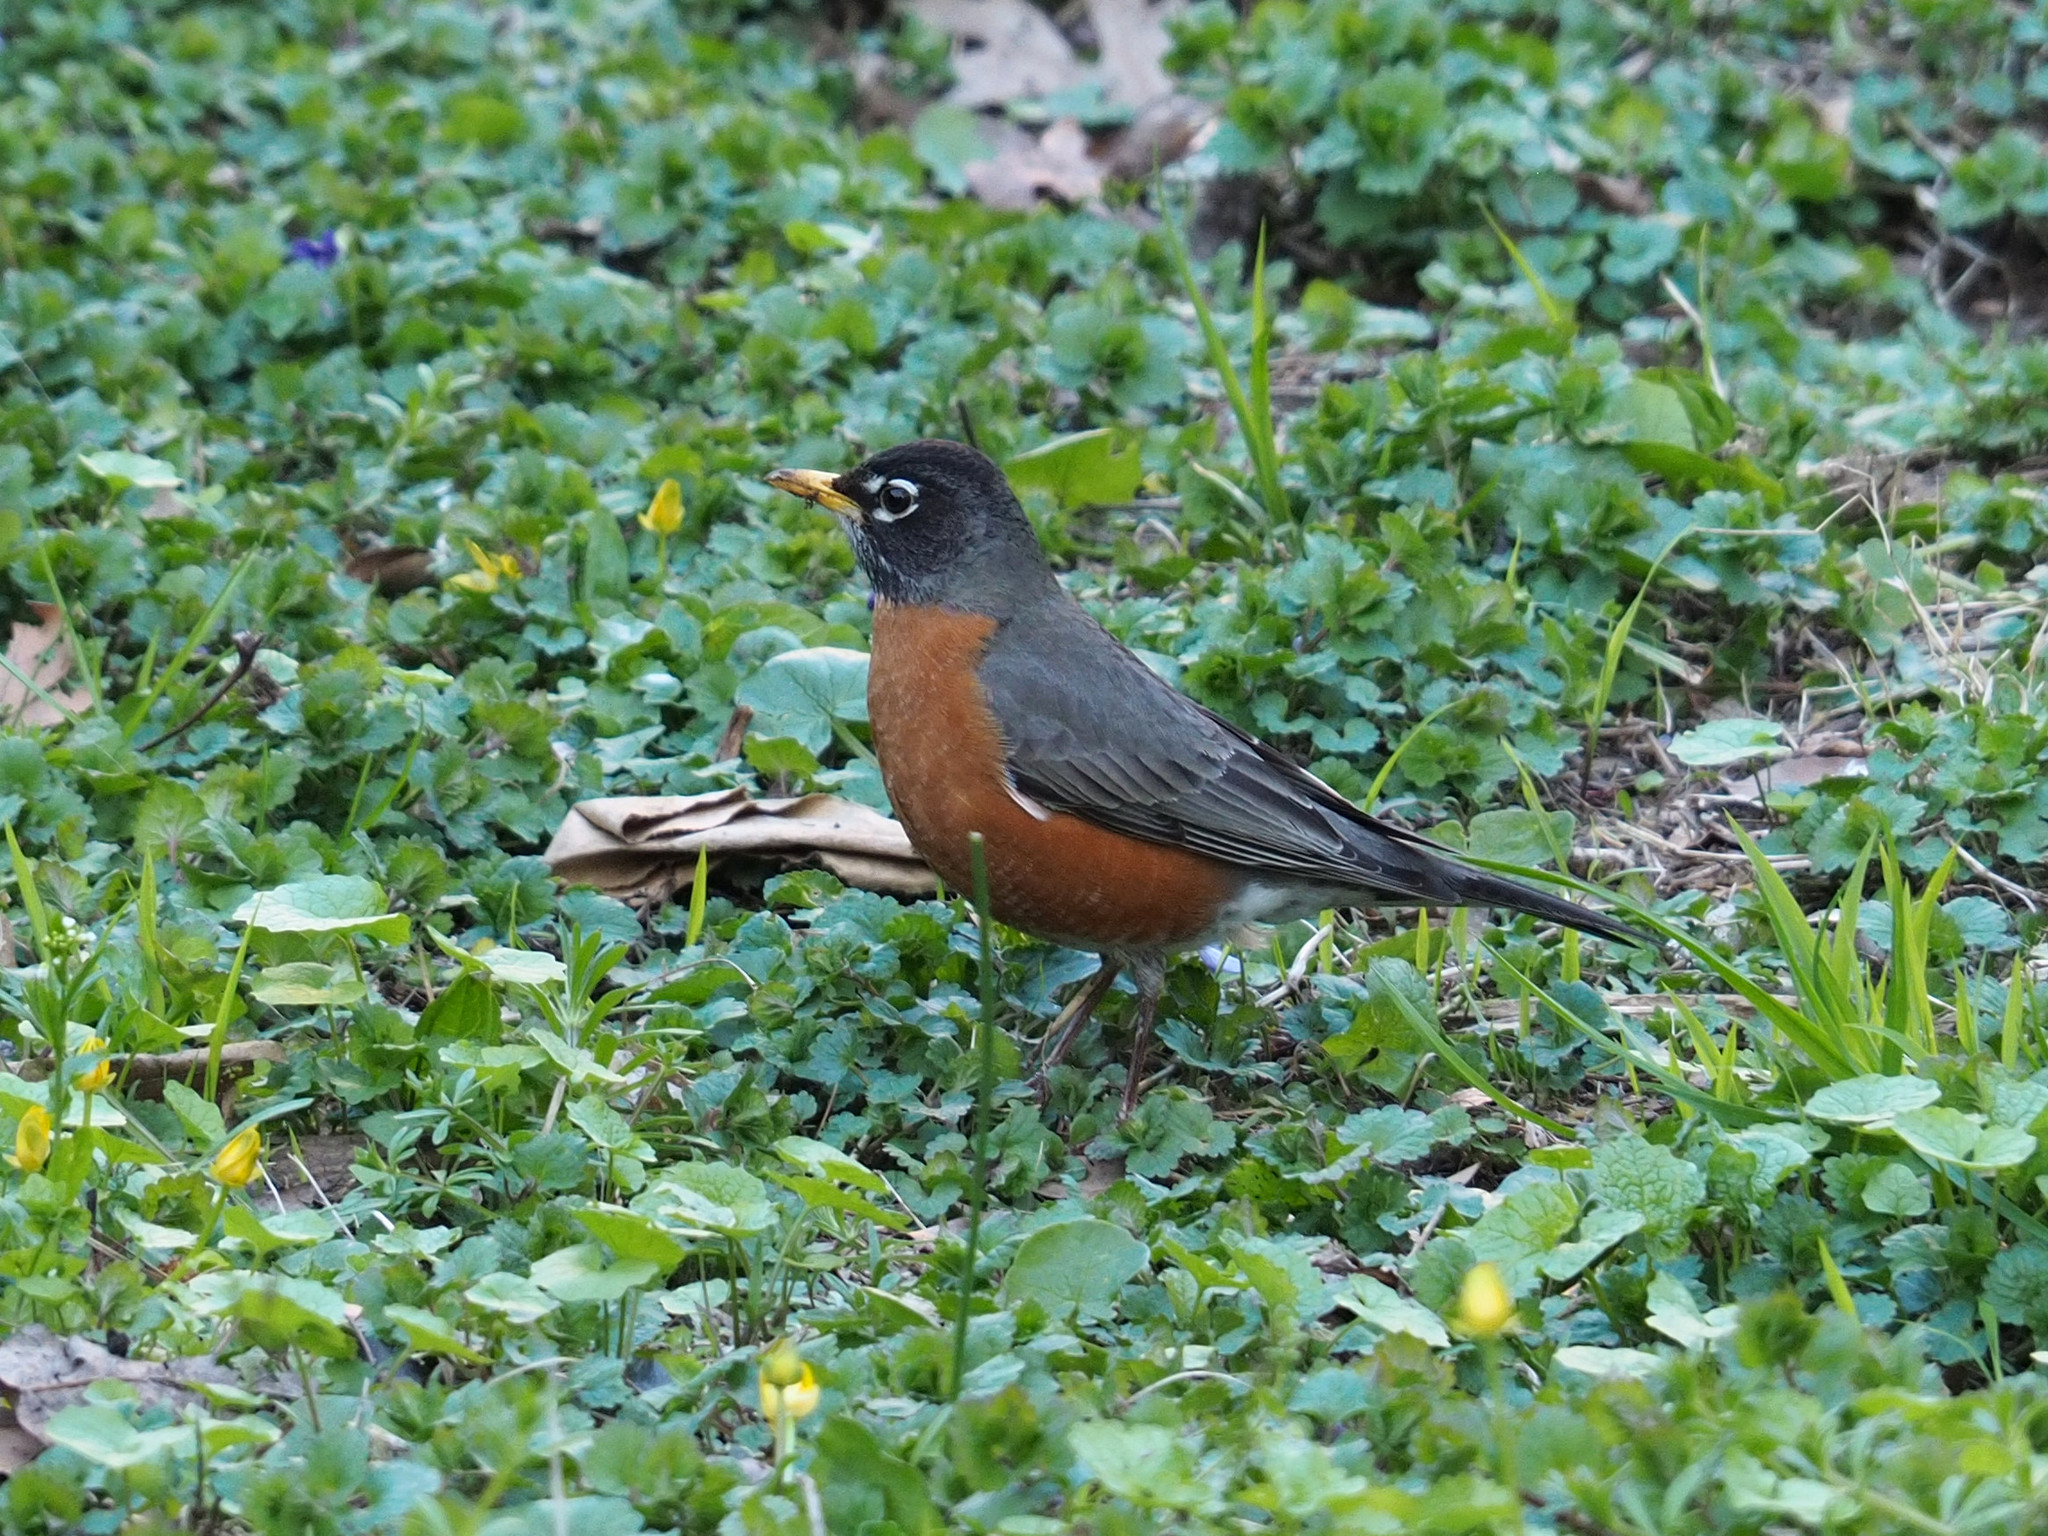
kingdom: Animalia
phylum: Chordata
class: Aves
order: Passeriformes
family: Turdidae
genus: Turdus
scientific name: Turdus migratorius
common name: American robin
